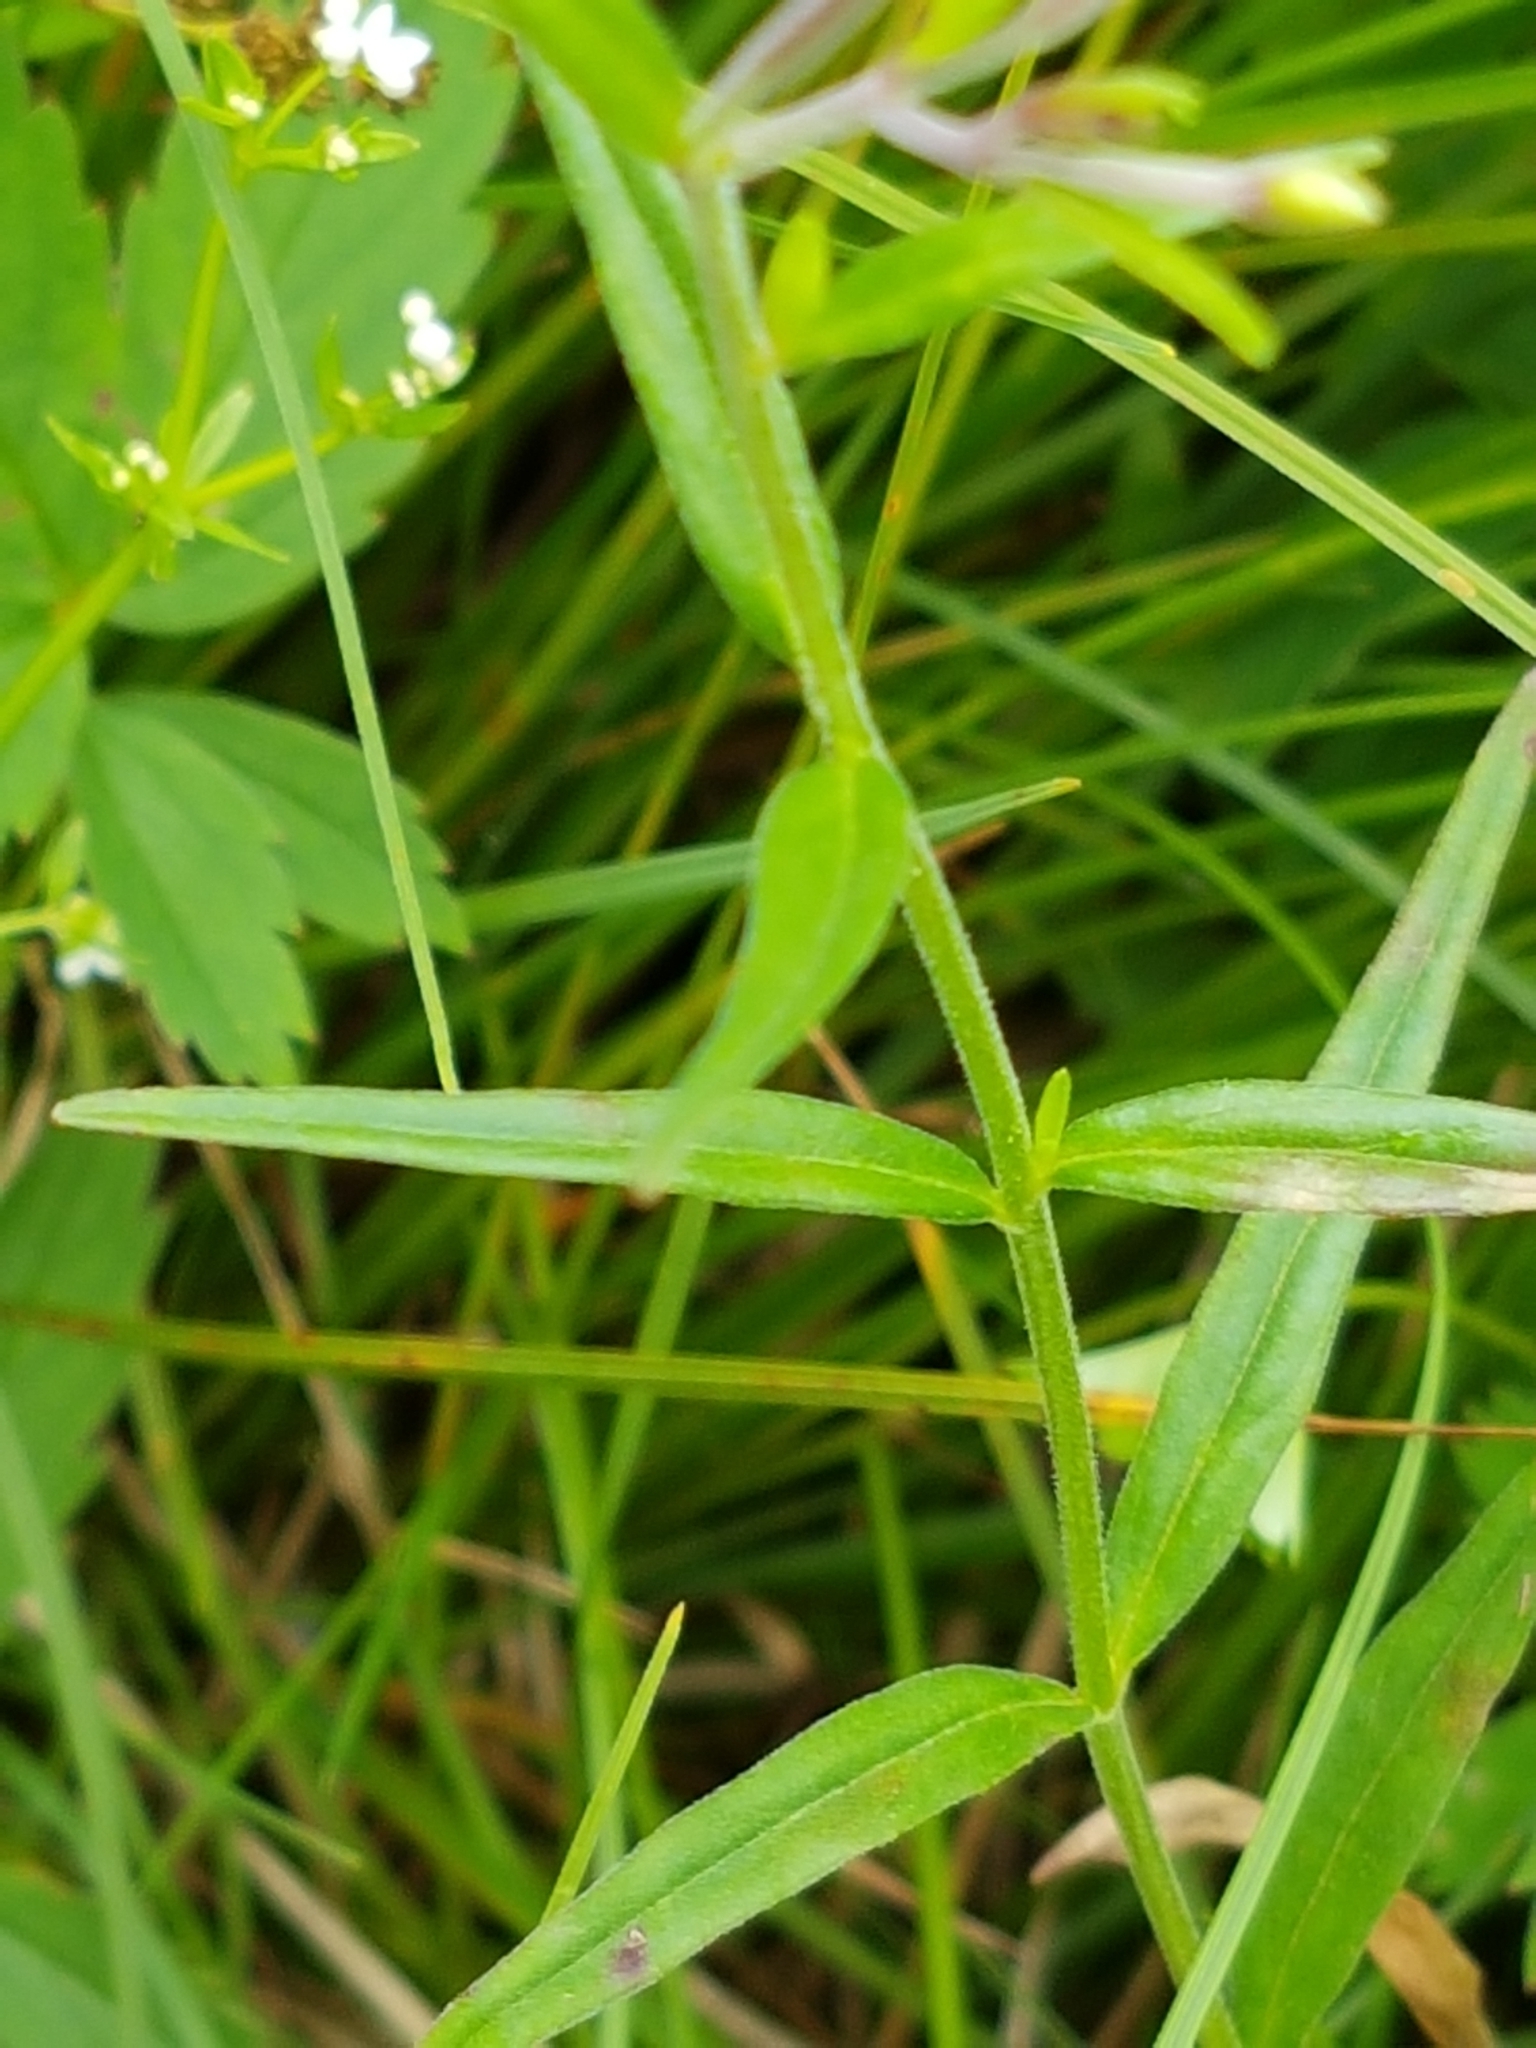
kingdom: Plantae
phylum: Tracheophyta
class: Magnoliopsida
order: Myrtales
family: Onagraceae
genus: Epilobium
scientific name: Epilobium palustre
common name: Marsh willowherb
